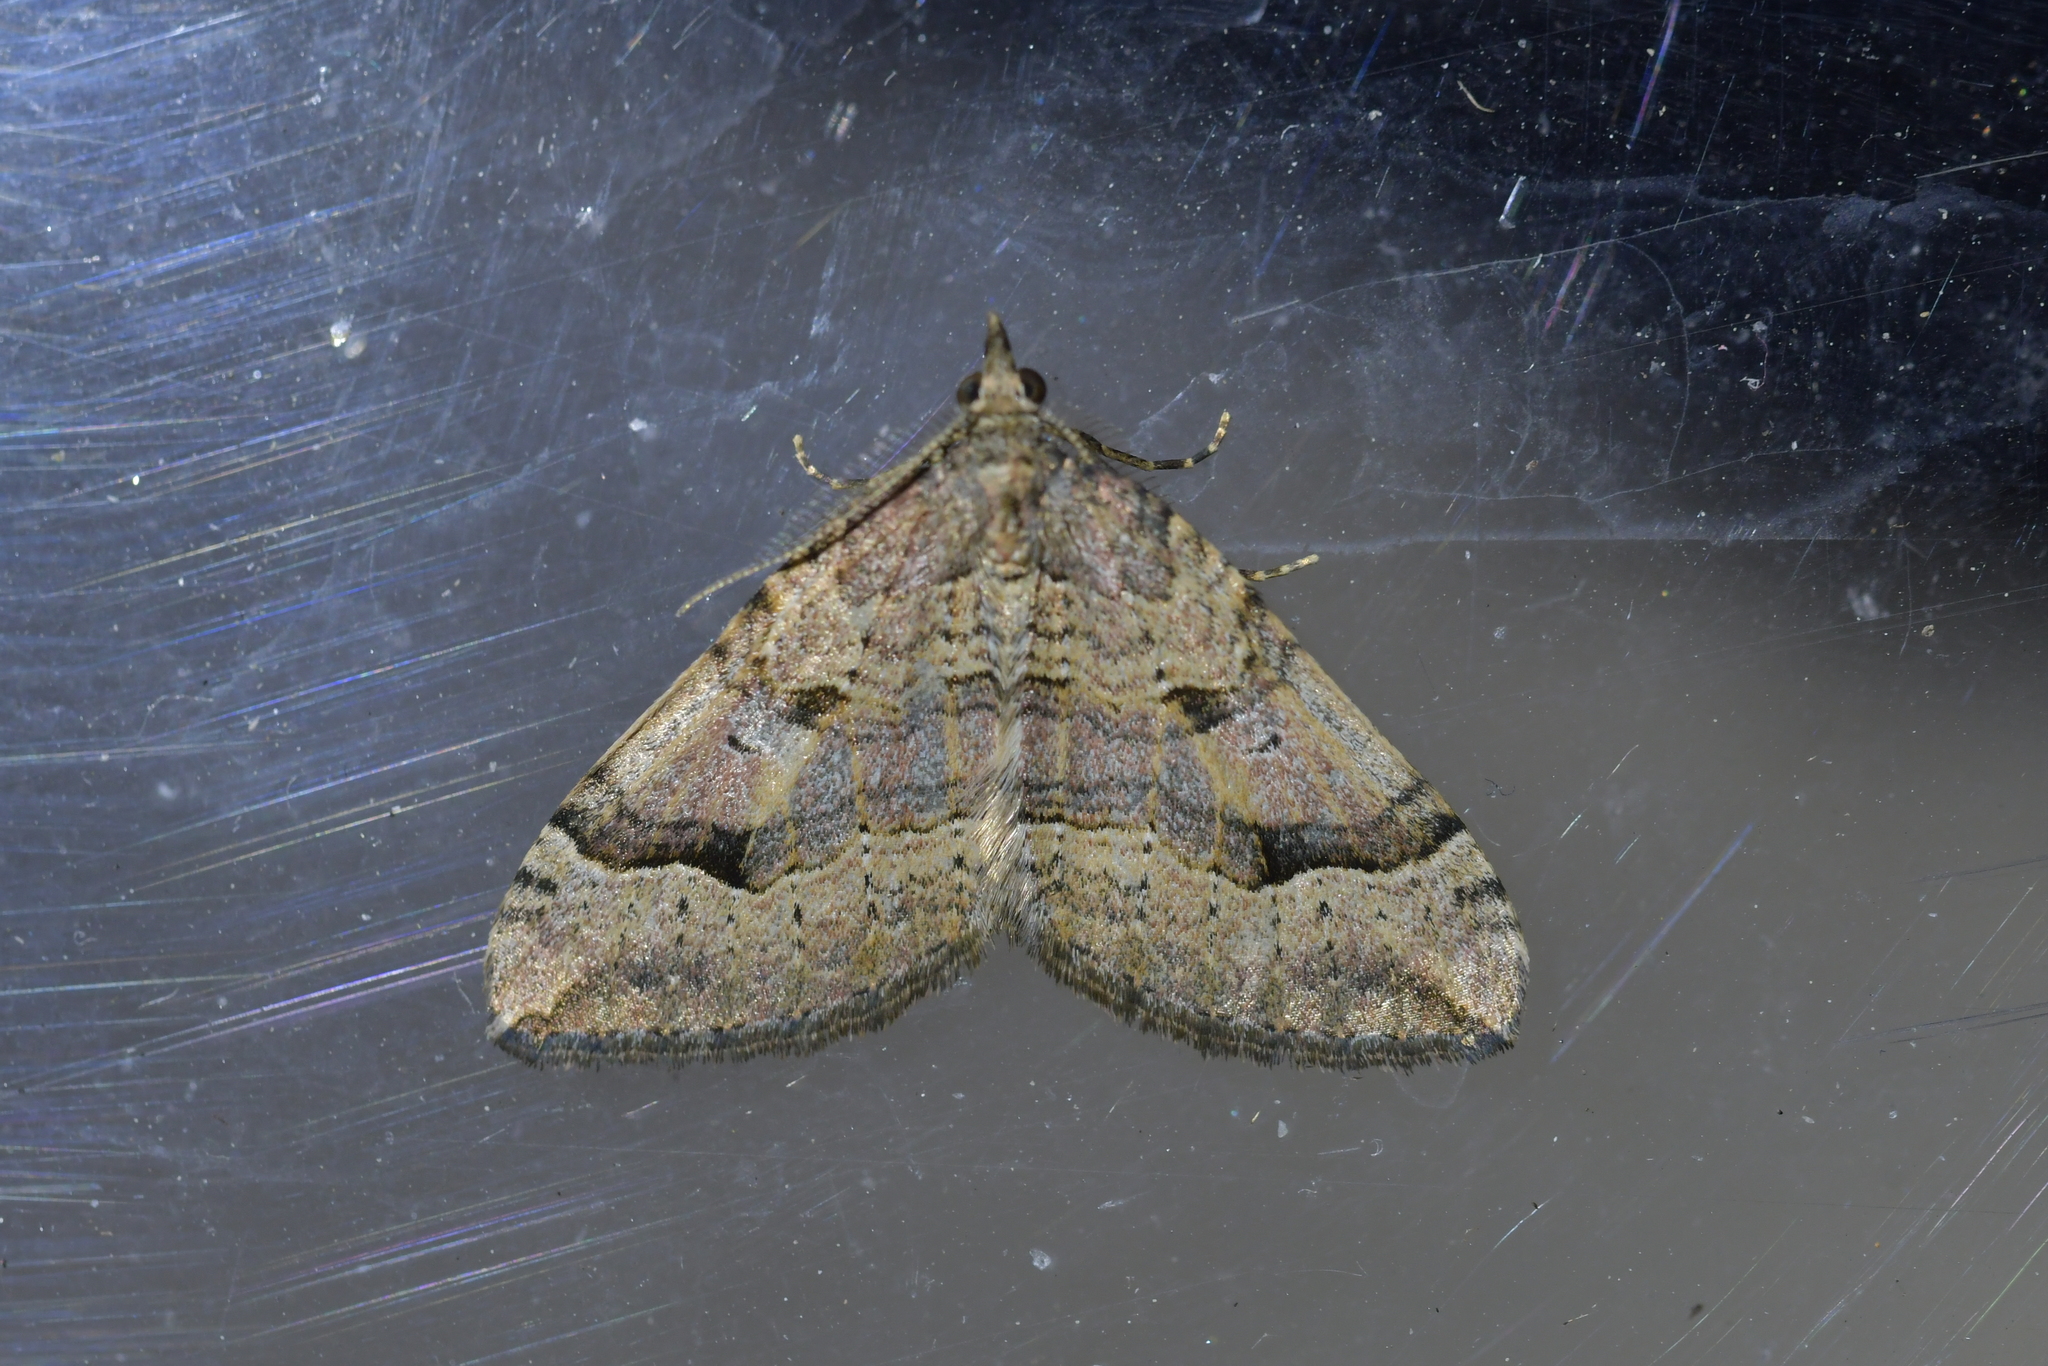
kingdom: Animalia
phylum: Arthropoda
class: Insecta
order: Lepidoptera
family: Geometridae
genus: Epyaxa
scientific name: Epyaxa rosearia
